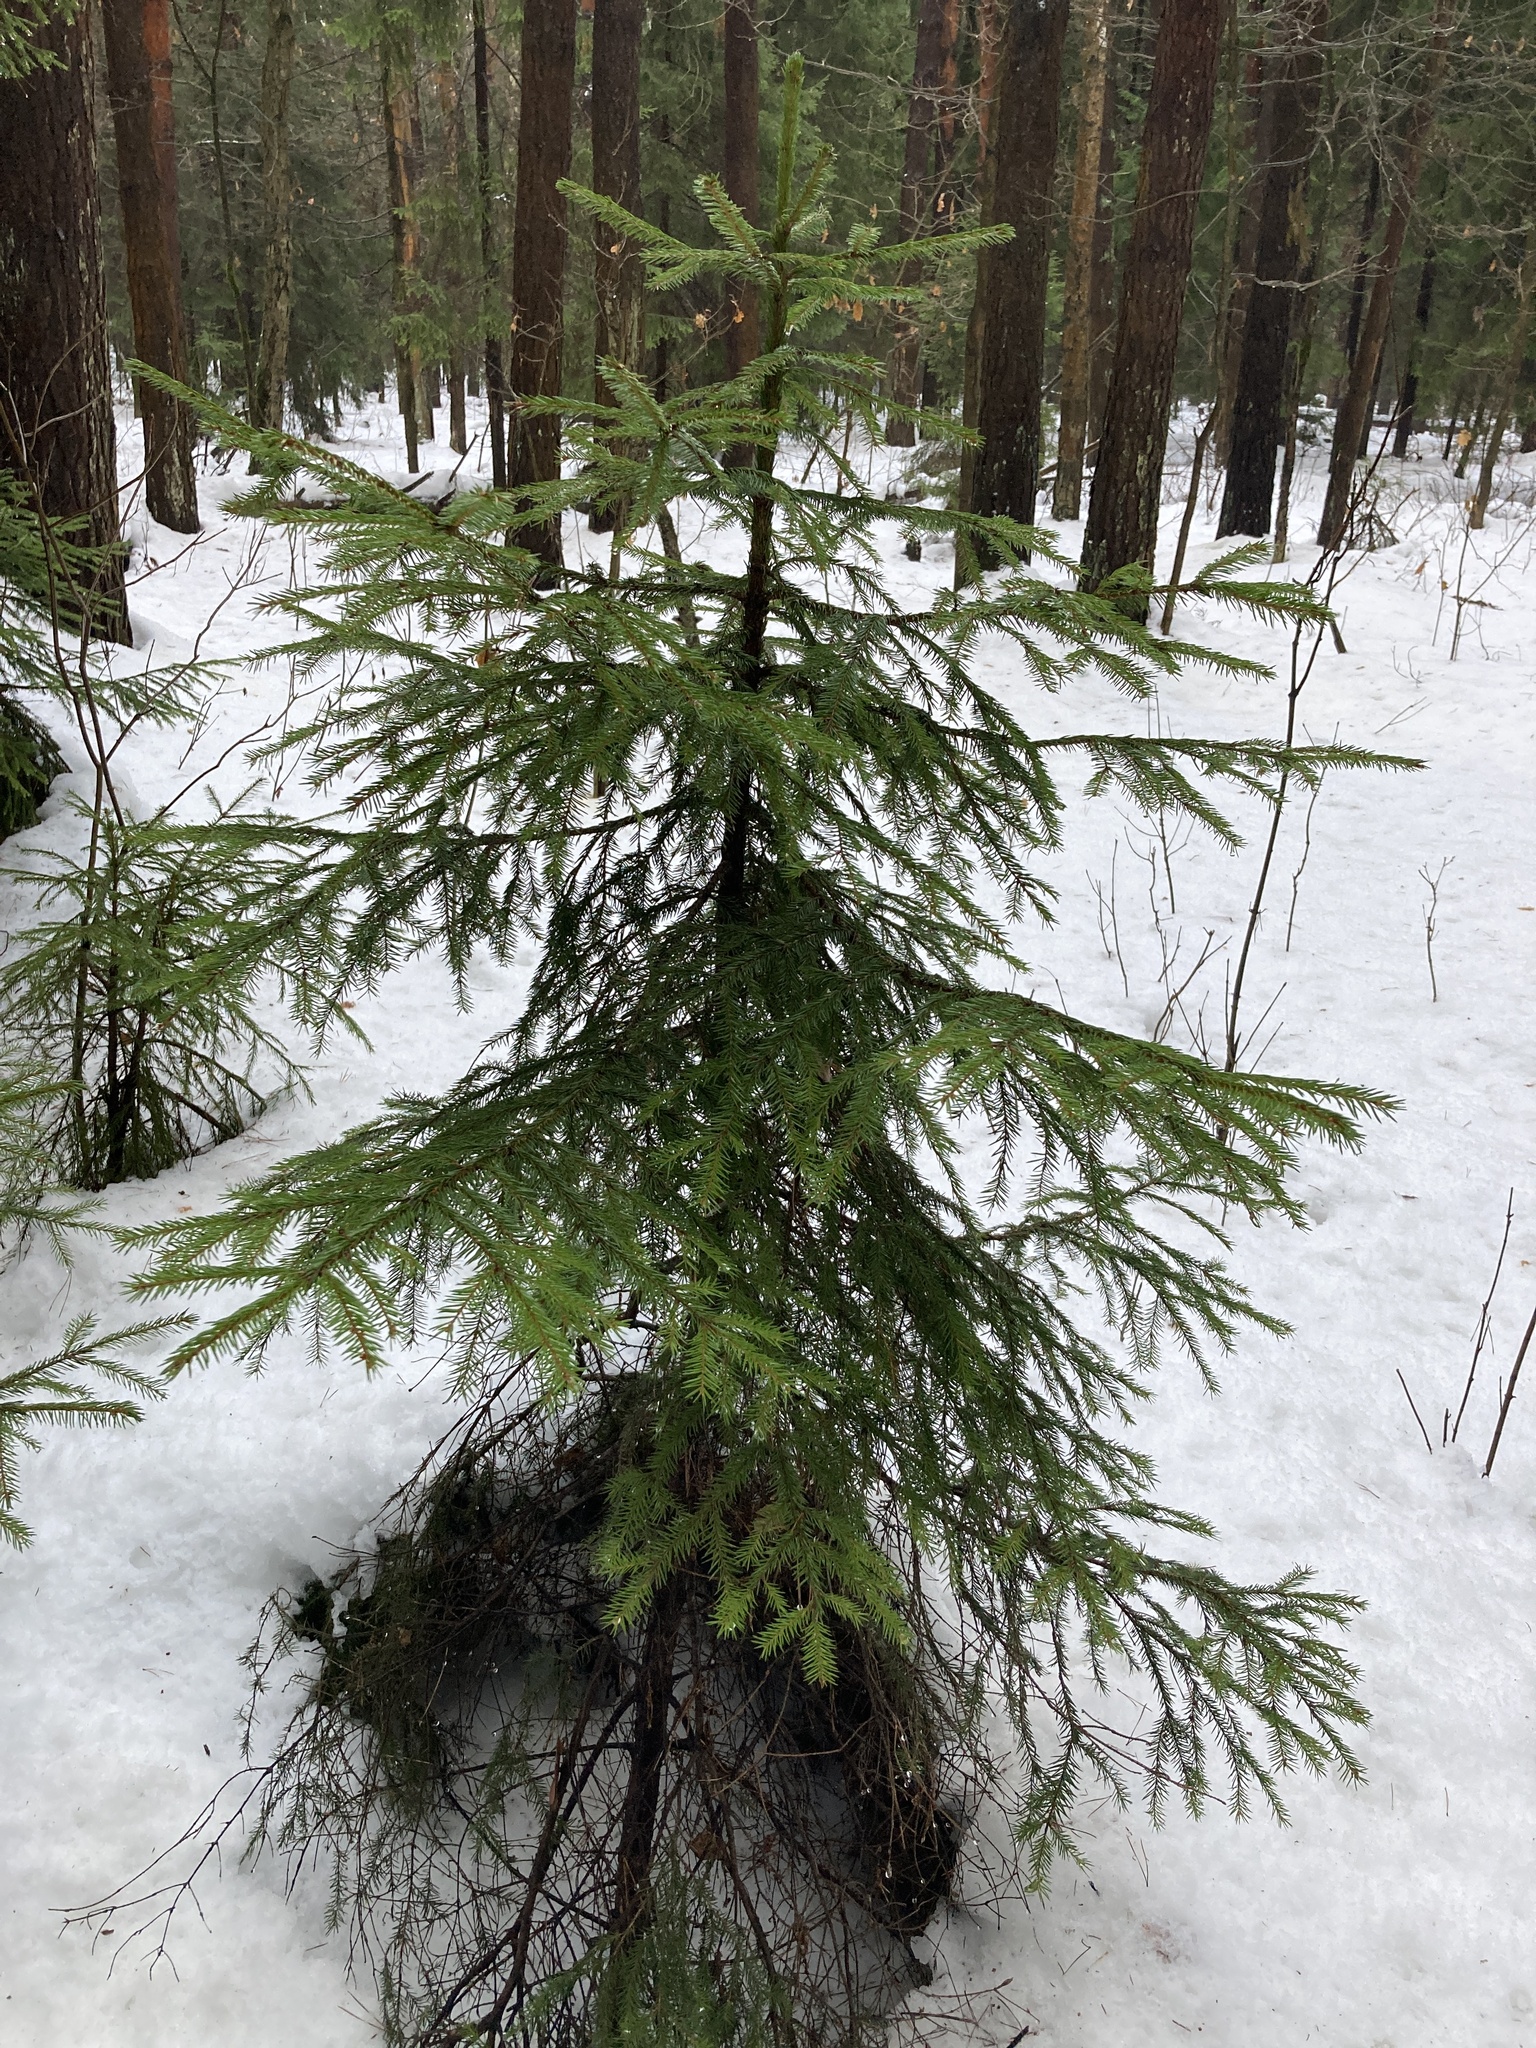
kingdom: Plantae
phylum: Tracheophyta
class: Pinopsida
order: Pinales
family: Pinaceae
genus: Picea
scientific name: Picea abies
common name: Norway spruce
